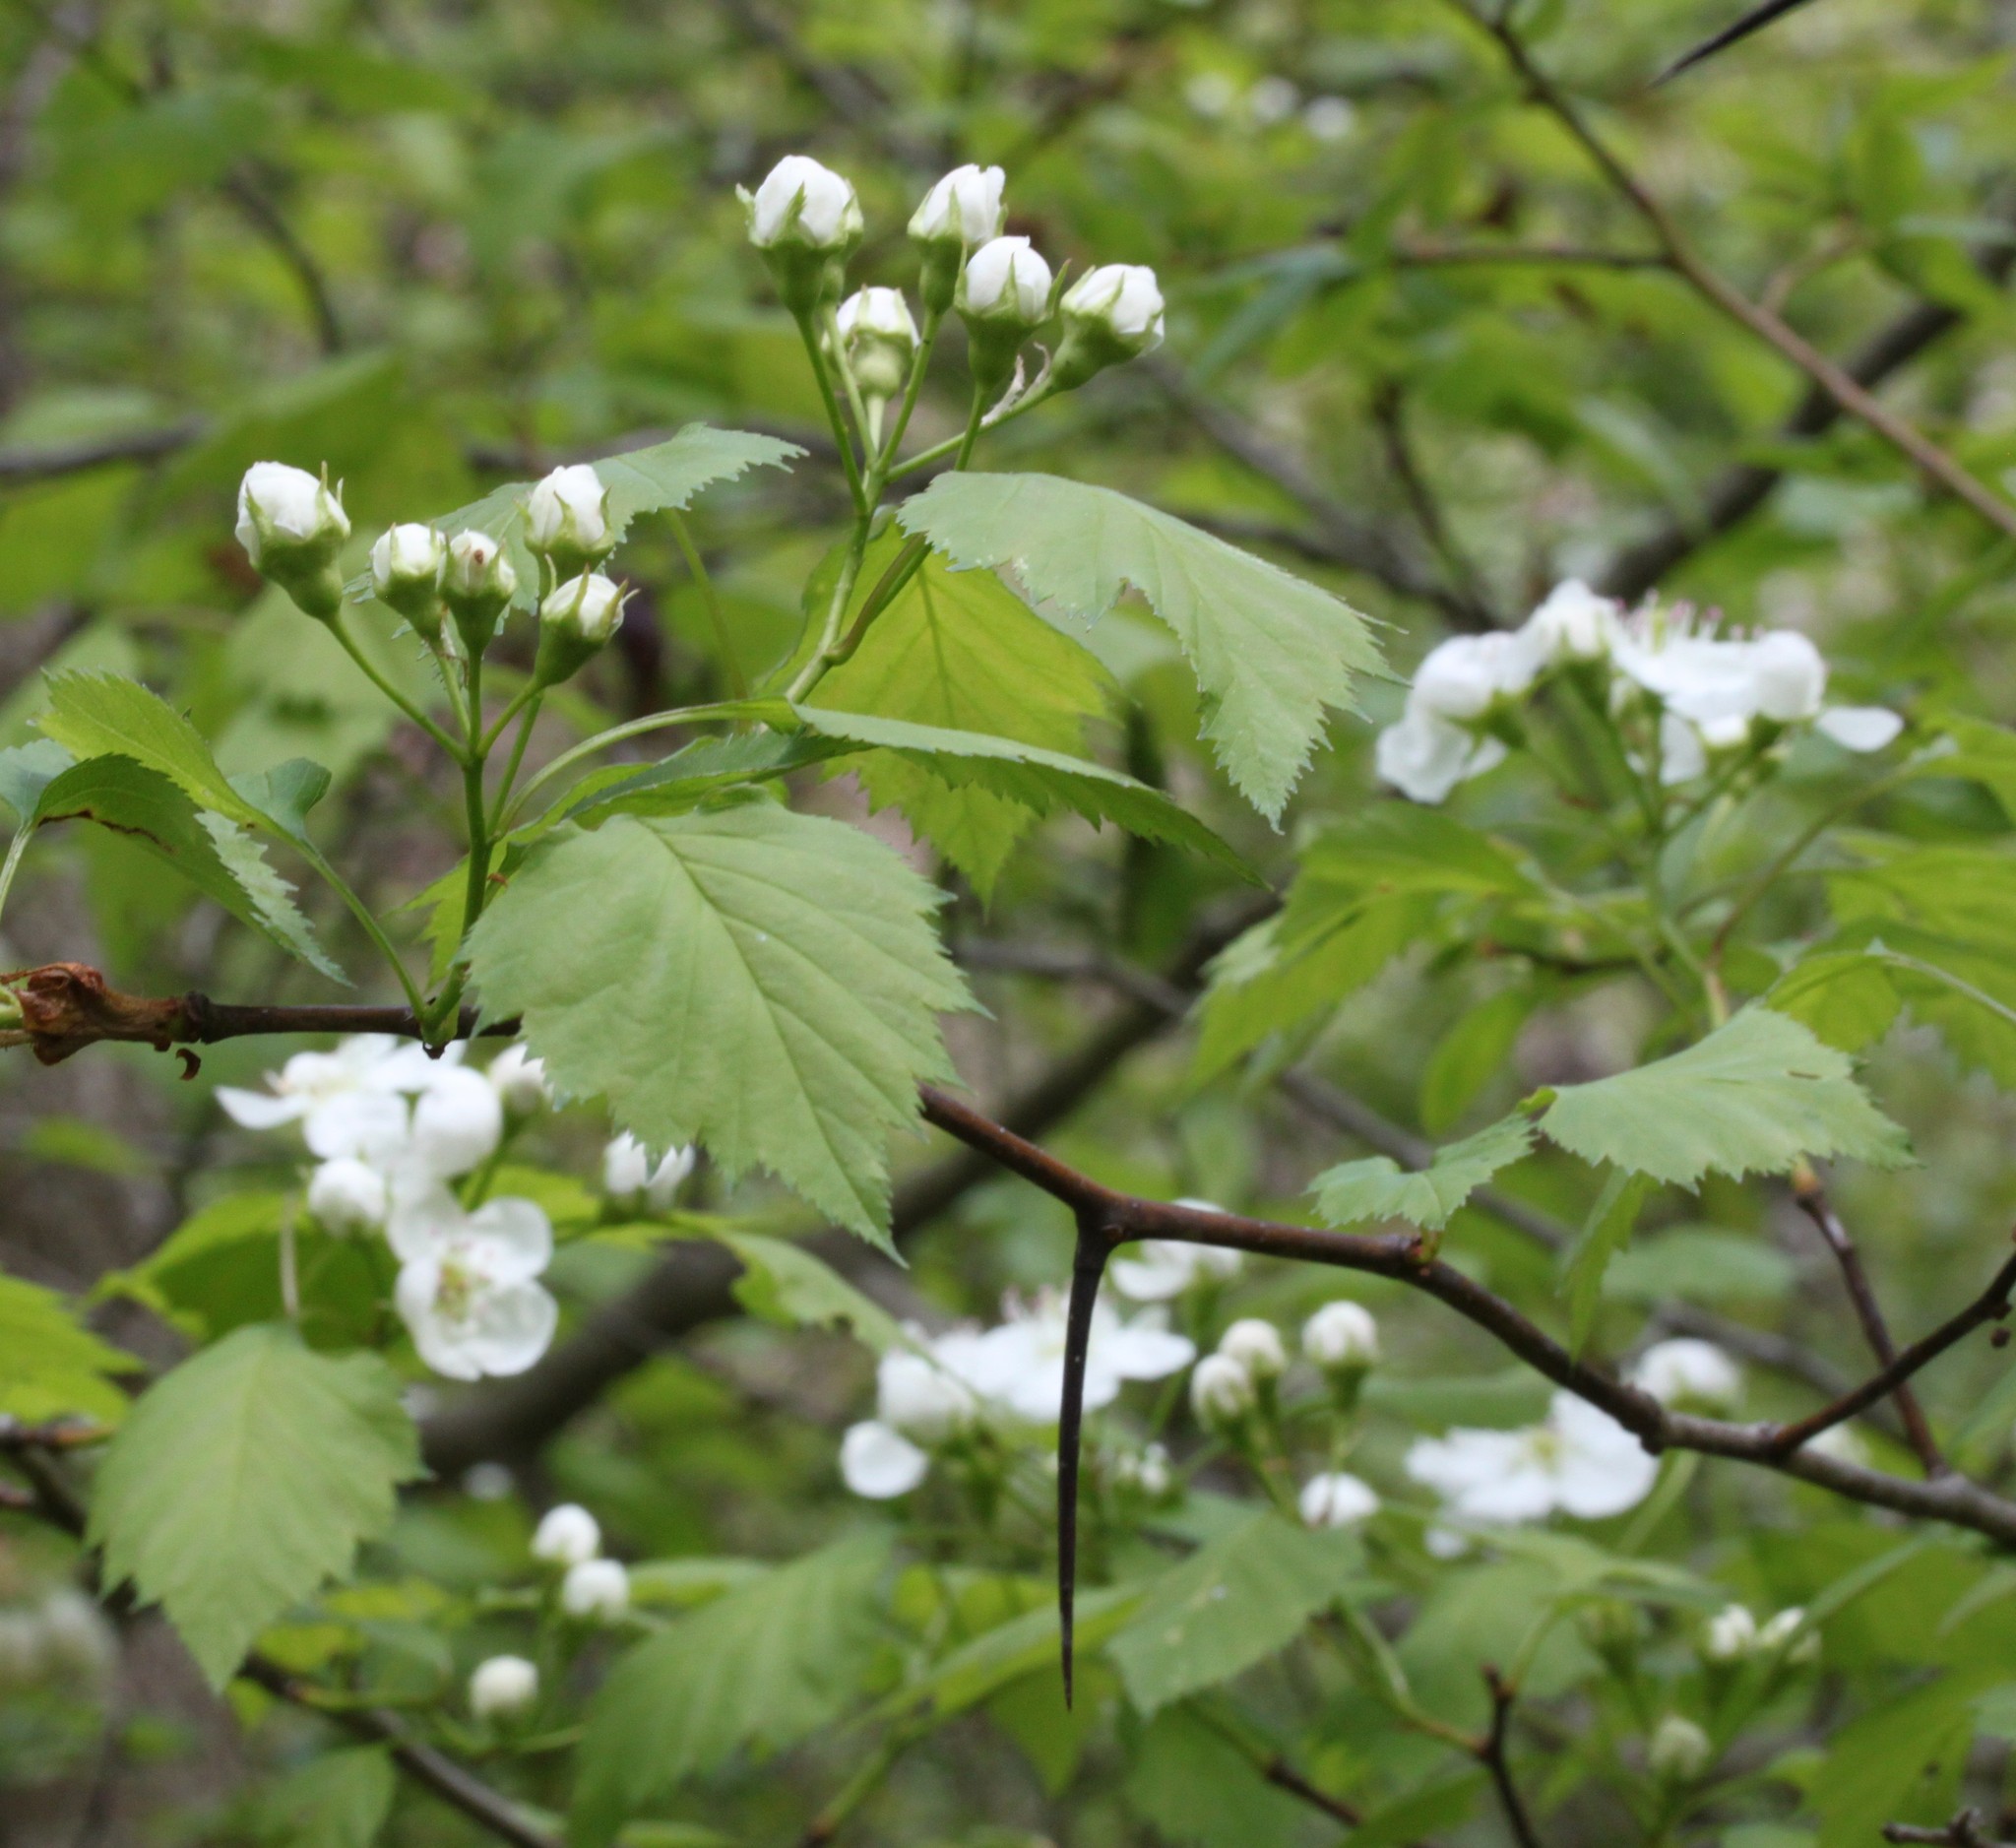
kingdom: Plantae
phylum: Tracheophyta
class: Magnoliopsida
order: Rosales
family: Rosaceae
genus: Crataegus
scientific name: Crataegus
